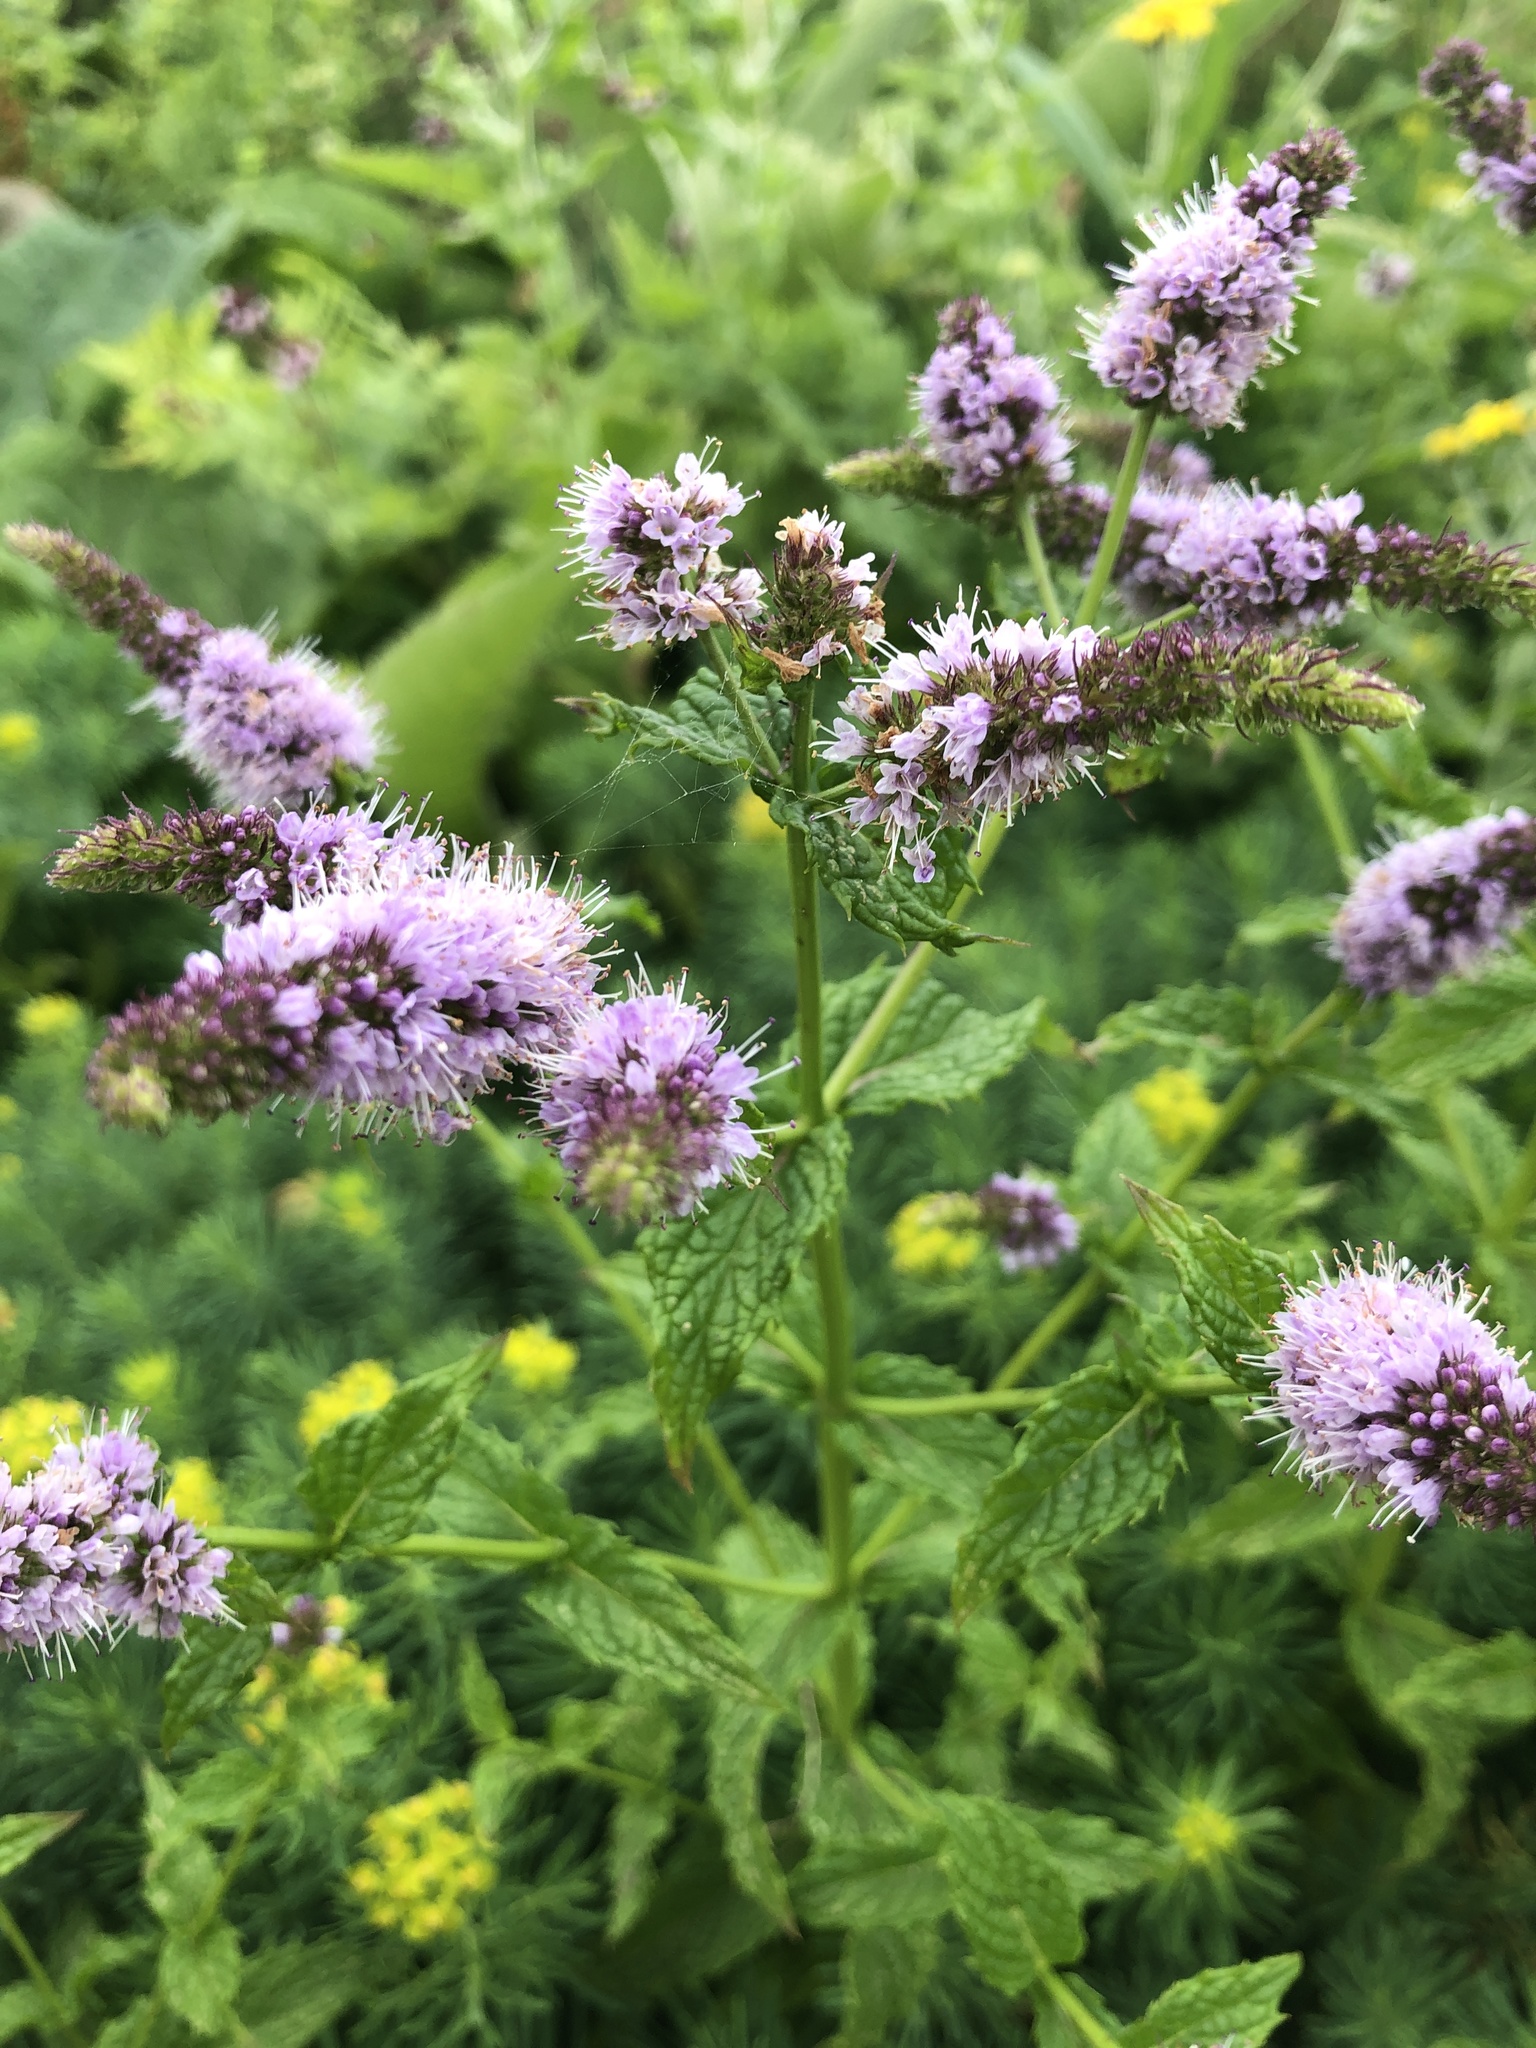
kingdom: Plantae
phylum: Tracheophyta
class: Magnoliopsida
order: Lamiales
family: Lamiaceae
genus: Mentha
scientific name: Mentha spicata
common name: Spearmint
